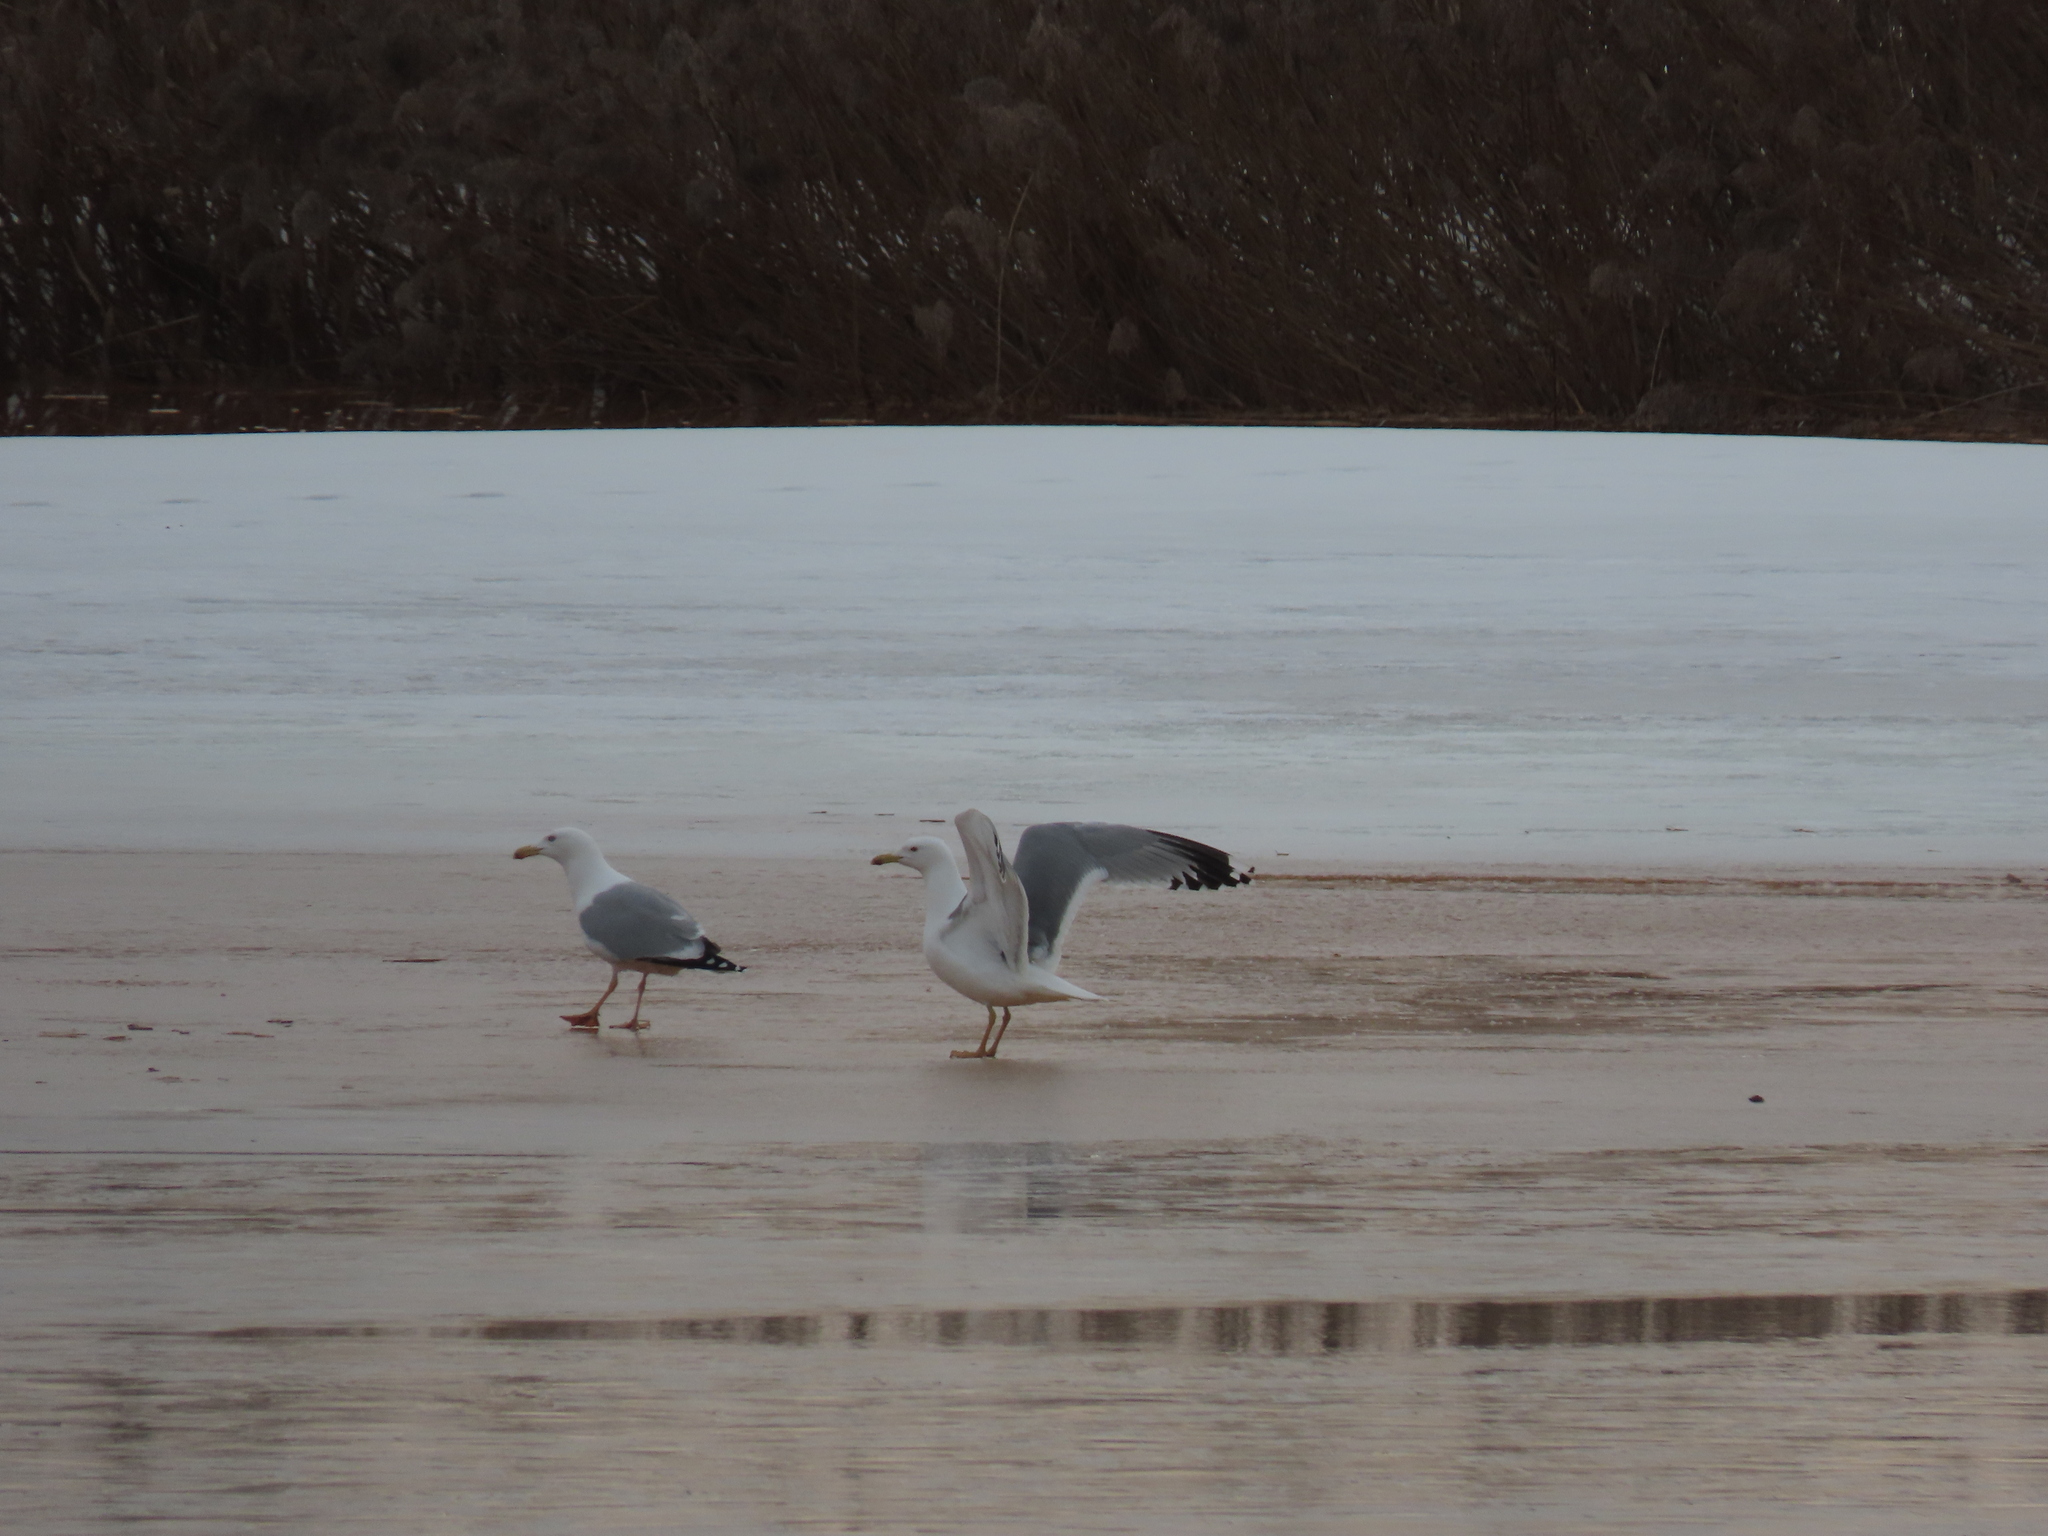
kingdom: Animalia
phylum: Chordata
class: Aves
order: Charadriiformes
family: Laridae
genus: Larus
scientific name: Larus argentatus
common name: Herring gull
